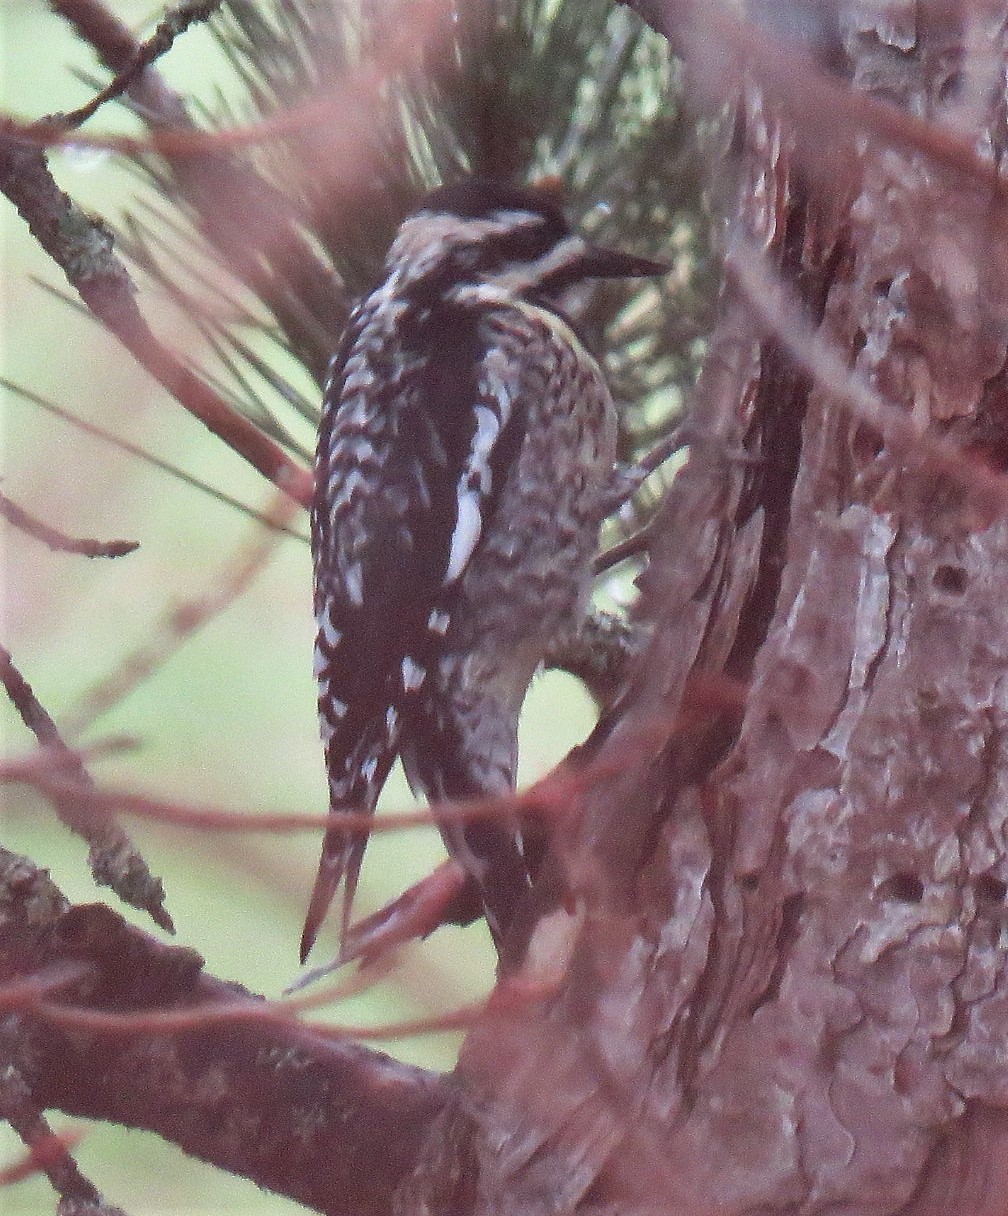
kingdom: Animalia
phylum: Chordata
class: Aves
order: Piciformes
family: Picidae
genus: Sphyrapicus
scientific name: Sphyrapicus varius
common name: Yellow-bellied sapsucker
